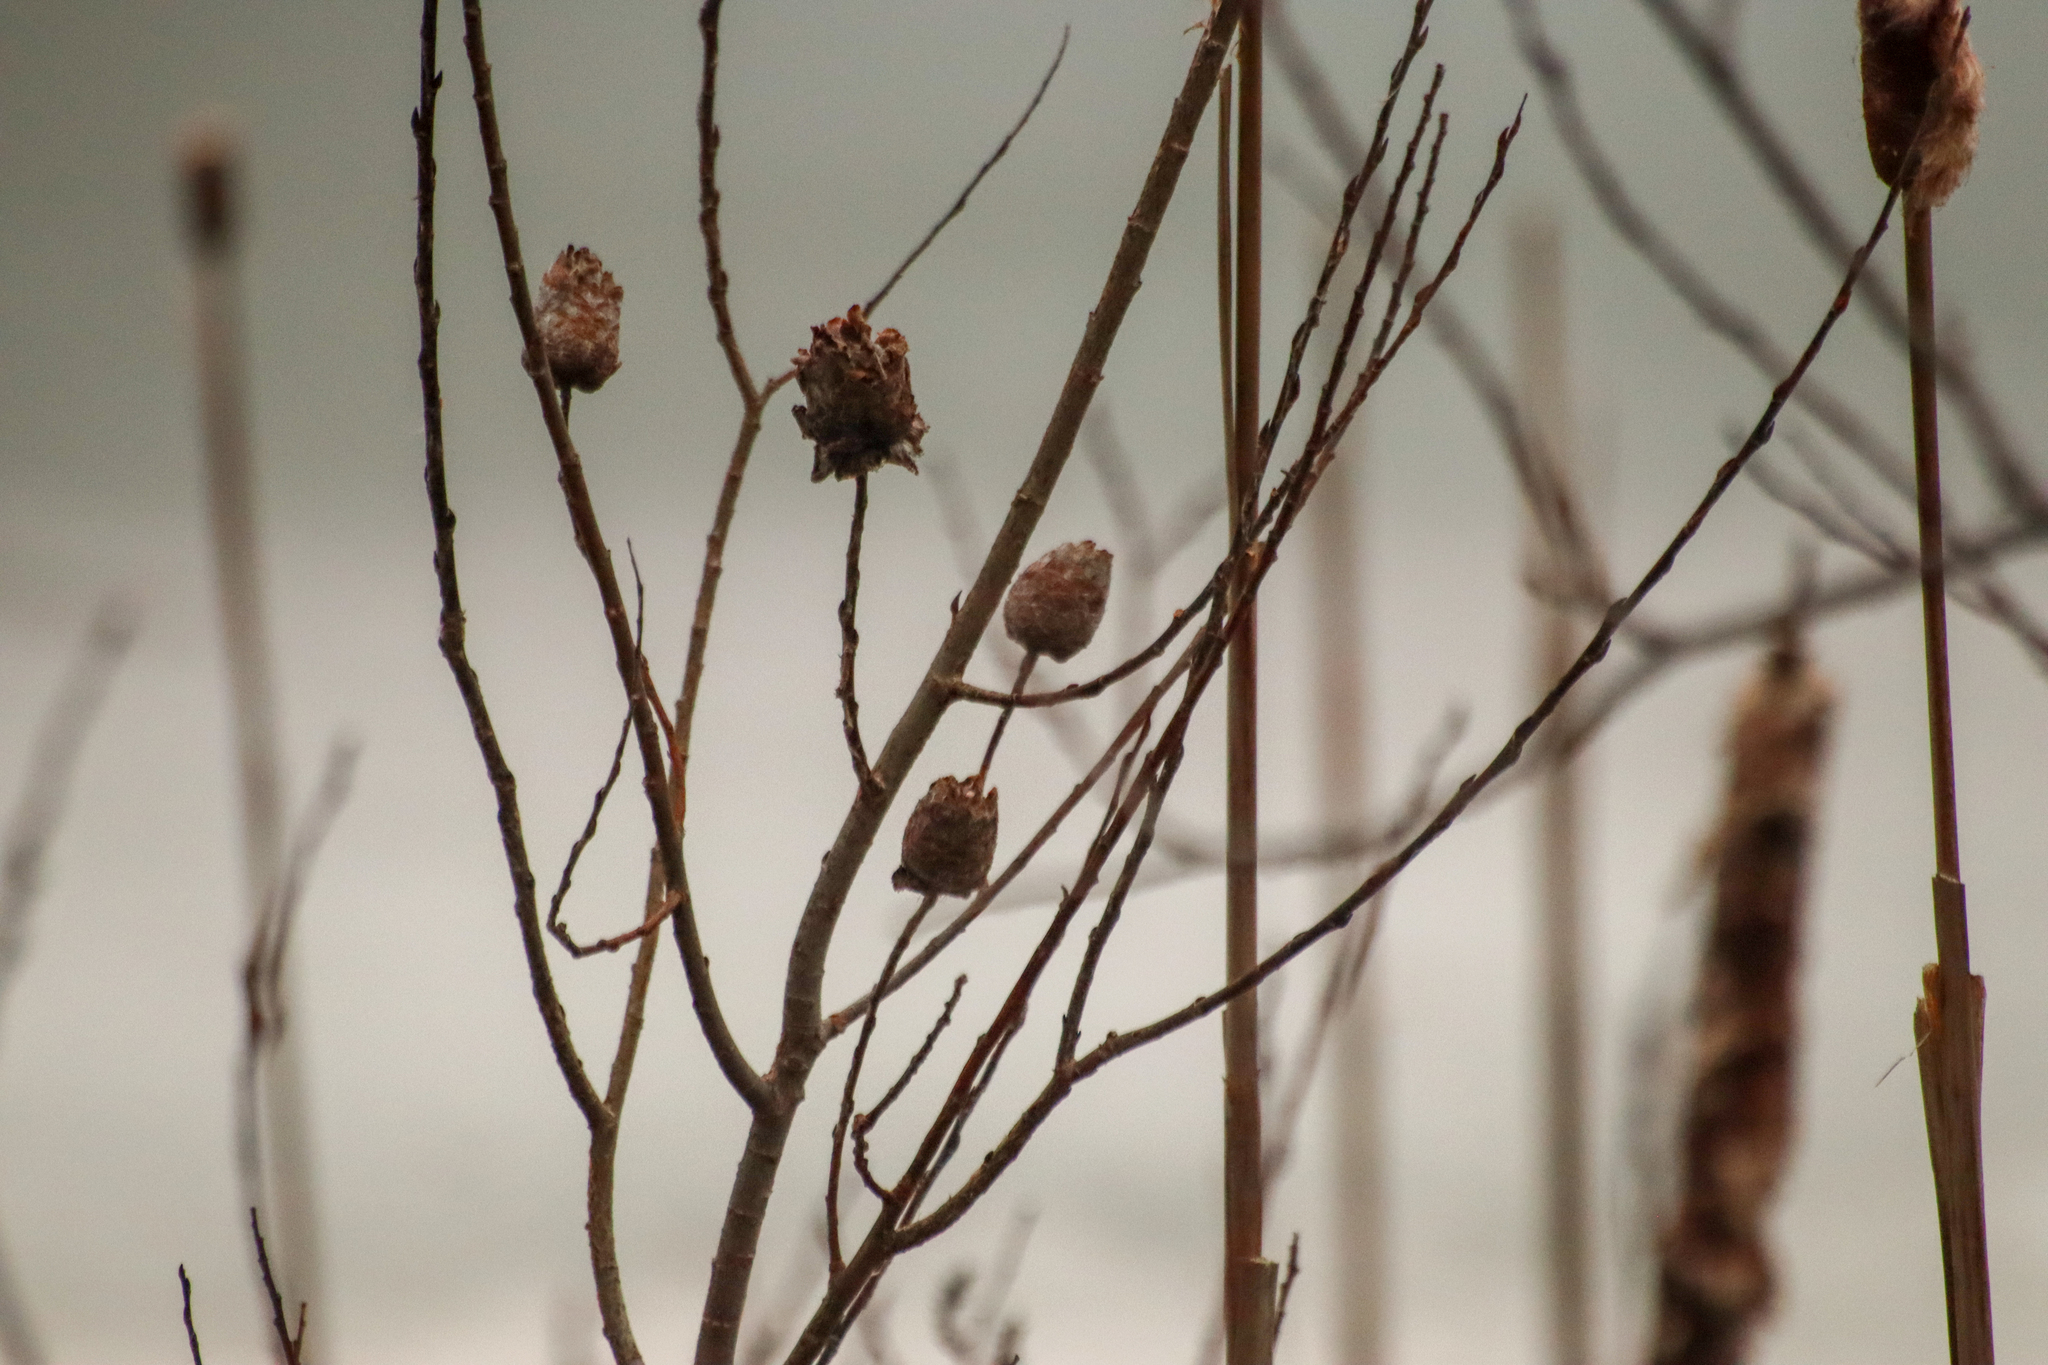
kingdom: Animalia
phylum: Arthropoda
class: Insecta
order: Diptera
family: Cecidomyiidae
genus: Rabdophaga
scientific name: Rabdophaga strobiloides
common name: Willow pinecone gall midge
